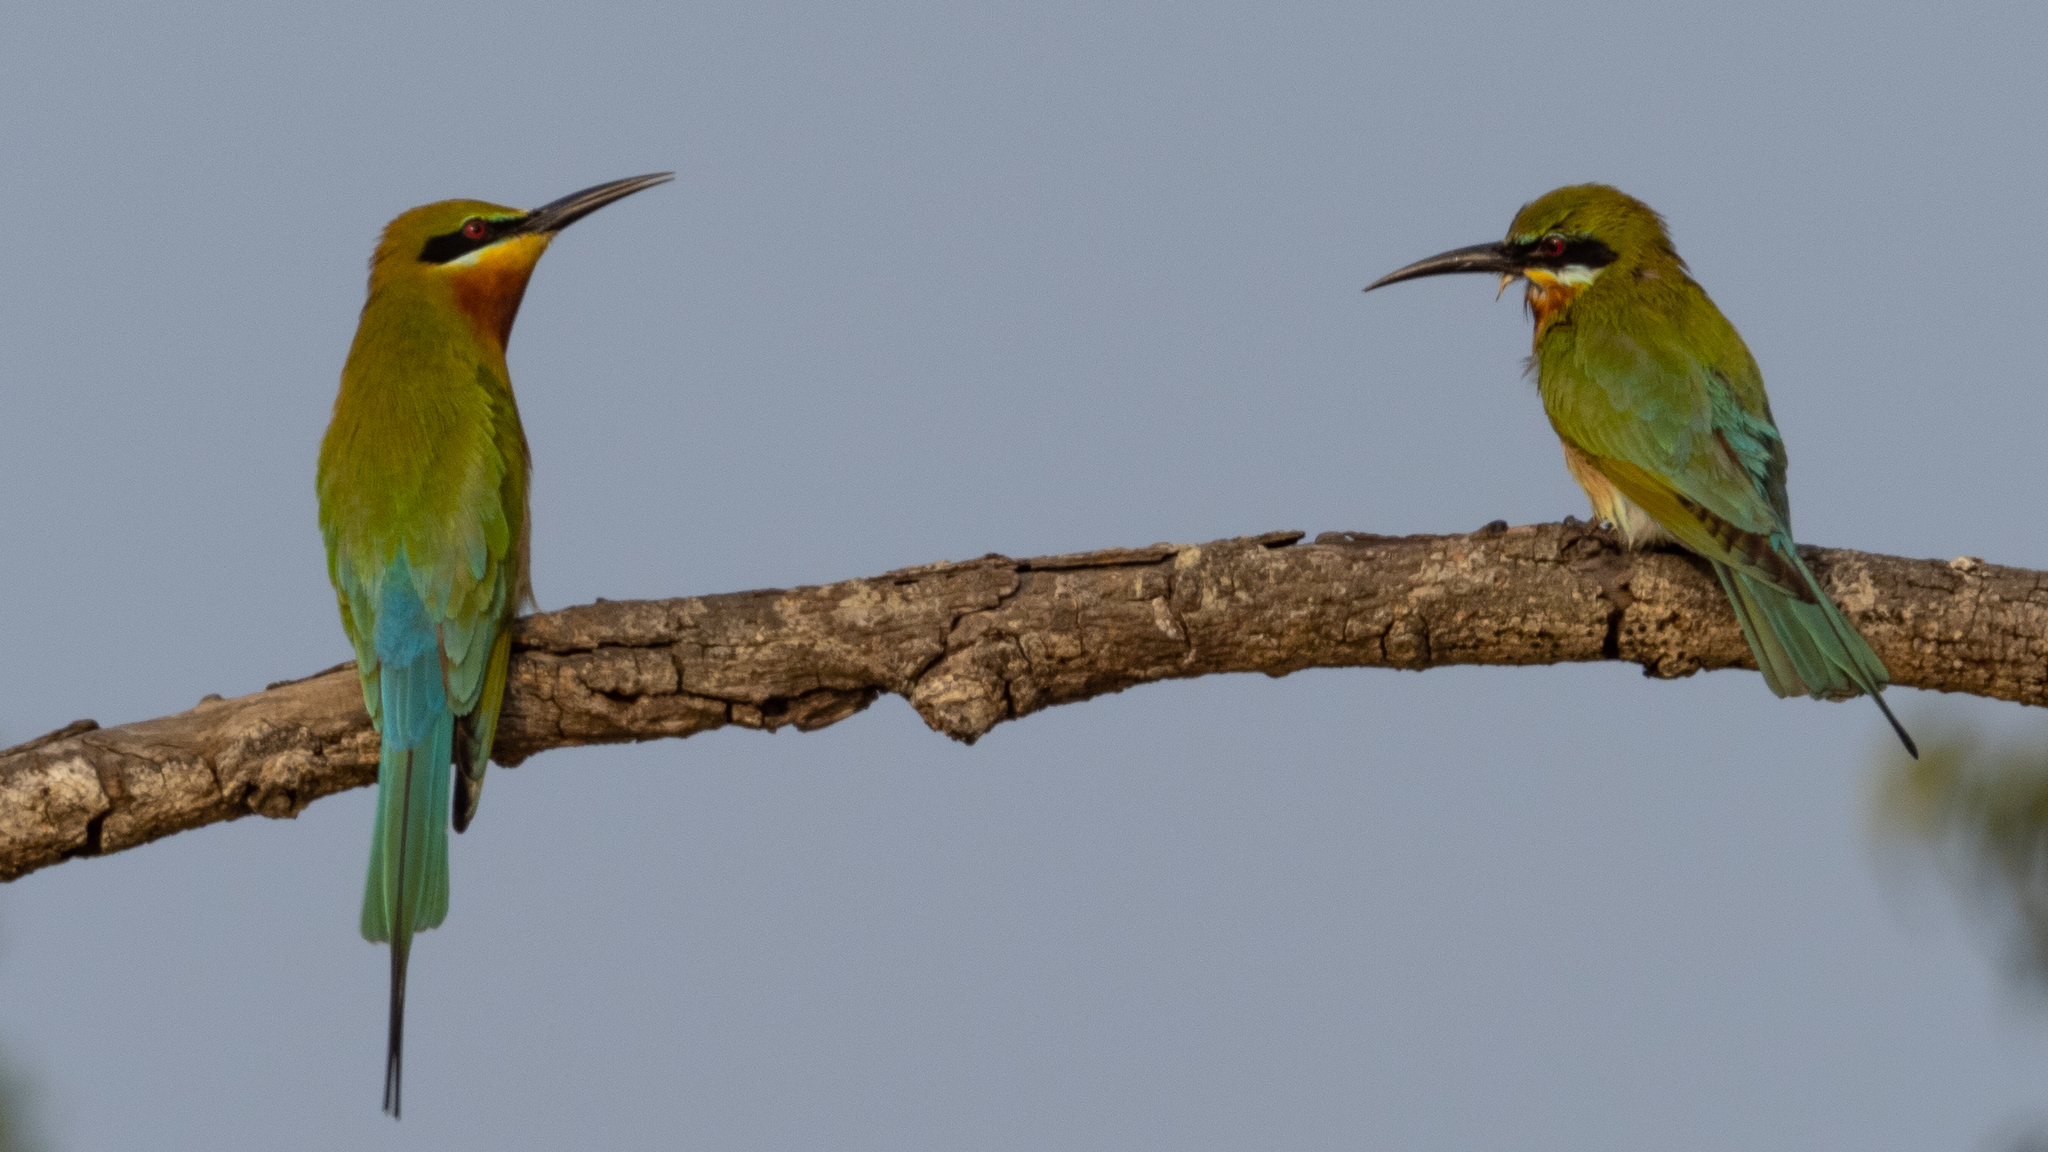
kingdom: Animalia
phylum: Chordata
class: Aves
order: Coraciiformes
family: Meropidae
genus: Merops
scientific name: Merops philippinus
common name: Blue-tailed bee-eater
